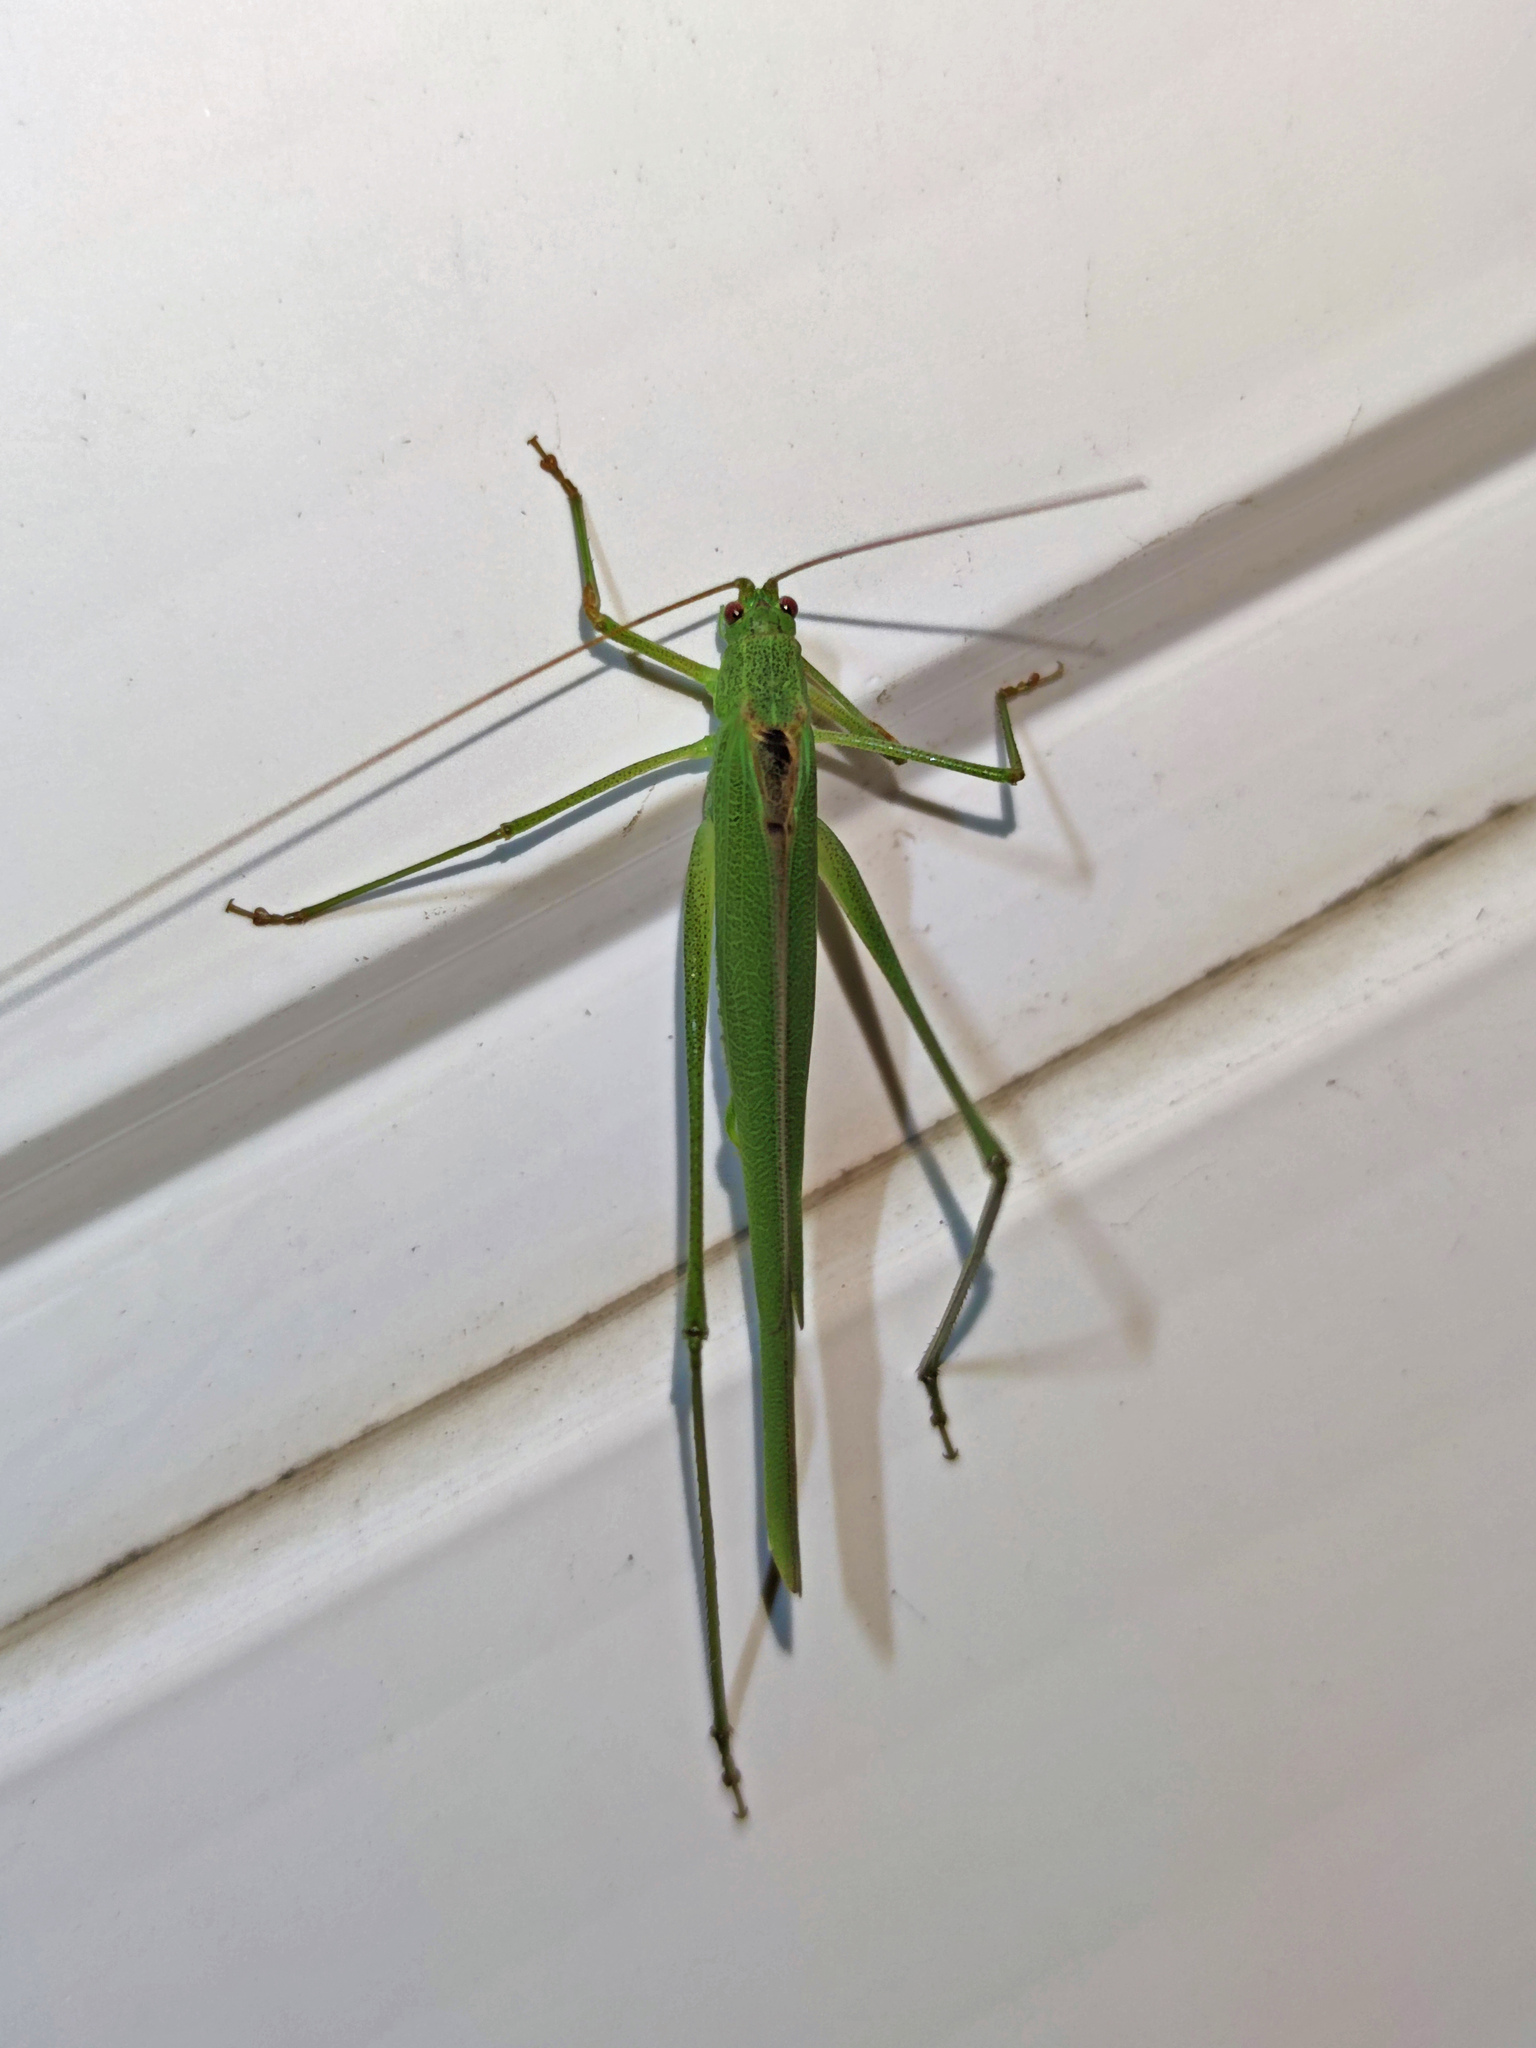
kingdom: Animalia
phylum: Arthropoda
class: Insecta
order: Orthoptera
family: Tettigoniidae
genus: Phaneroptera
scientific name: Phaneroptera falcata
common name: Sickle-bearing bush-cricket
